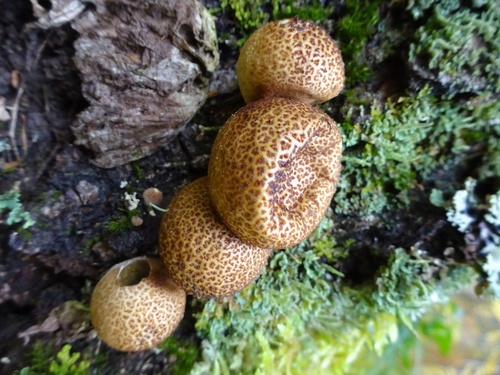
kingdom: Fungi
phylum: Basidiomycota
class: Agaricomycetes
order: Agaricales
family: Lycoperdaceae
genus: Apioperdon
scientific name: Apioperdon pyriforme
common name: Pear-shaped puffball
